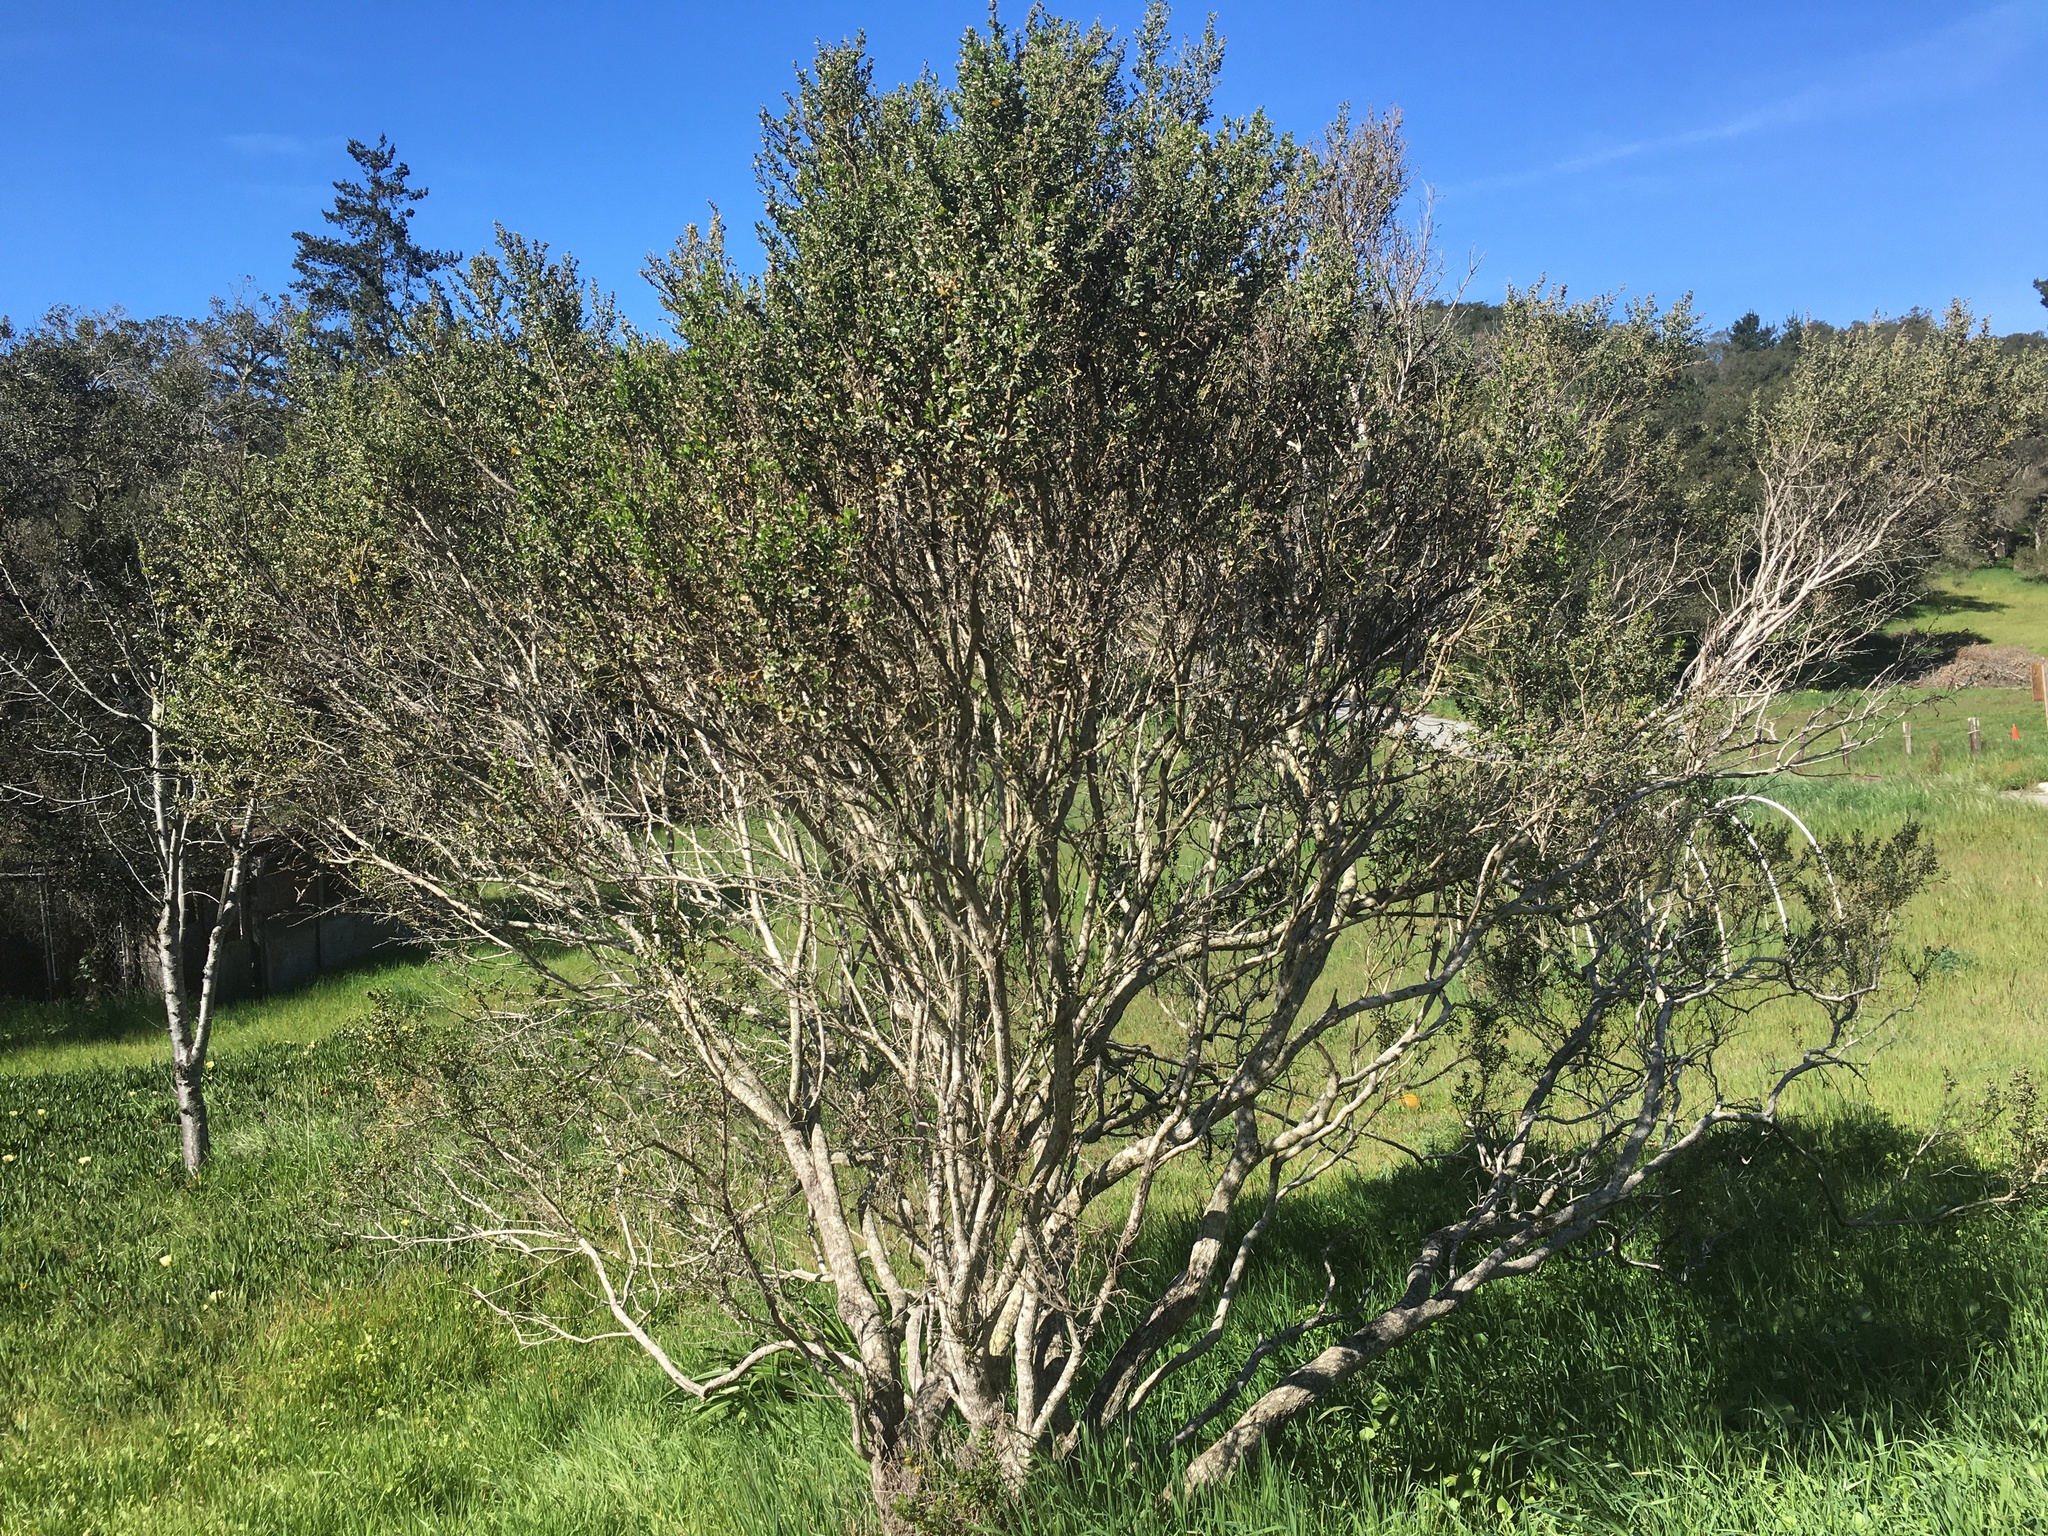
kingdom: Plantae
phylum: Tracheophyta
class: Magnoliopsida
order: Asterales
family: Asteraceae
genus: Baccharis
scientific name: Baccharis pilularis
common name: Coyotebrush
